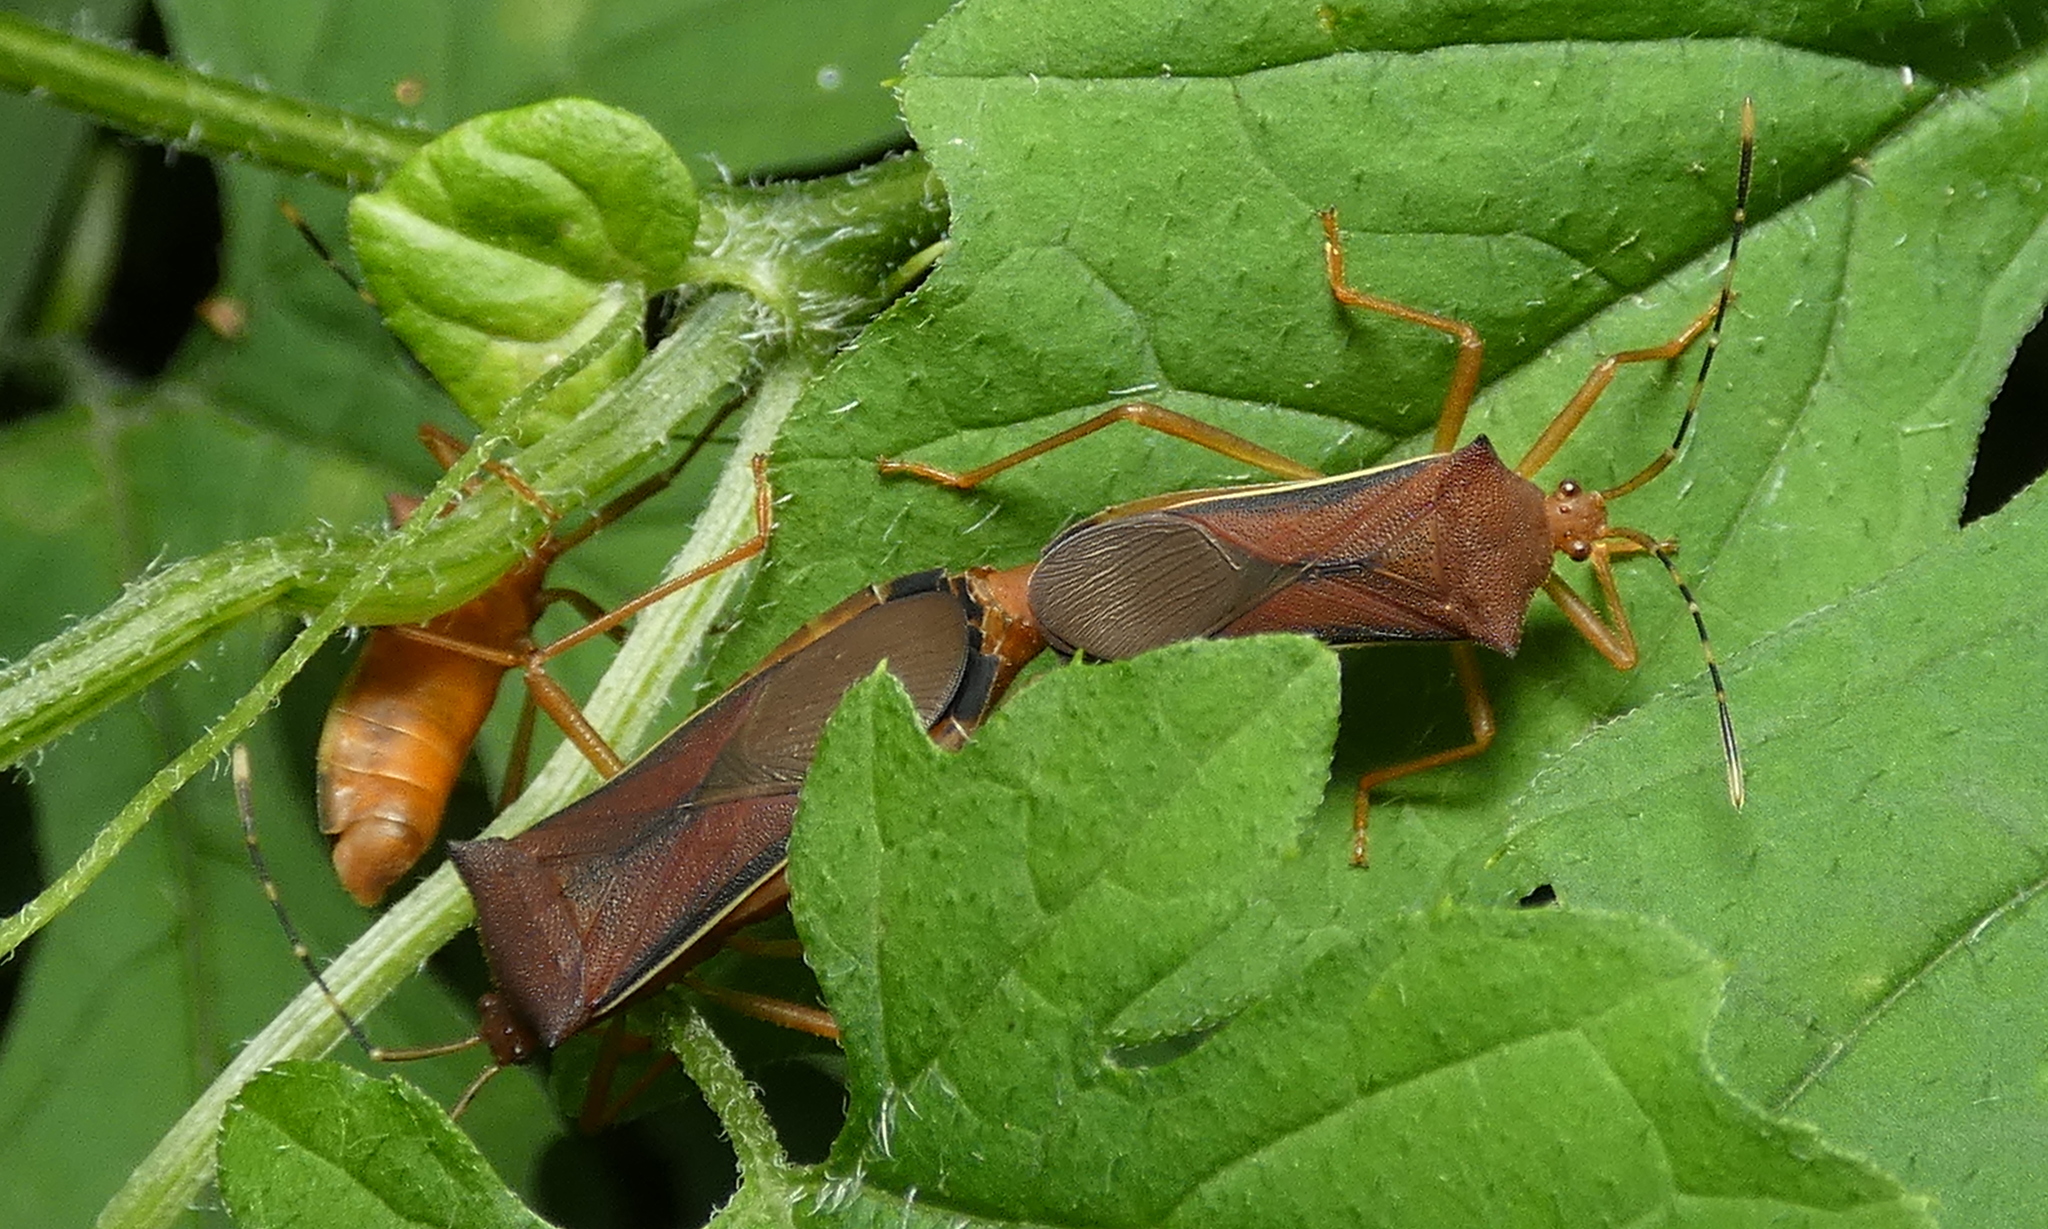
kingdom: Animalia
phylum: Arthropoda
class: Insecta
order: Hemiptera
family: Coreidae
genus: Anasa
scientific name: Anasa varicornis
